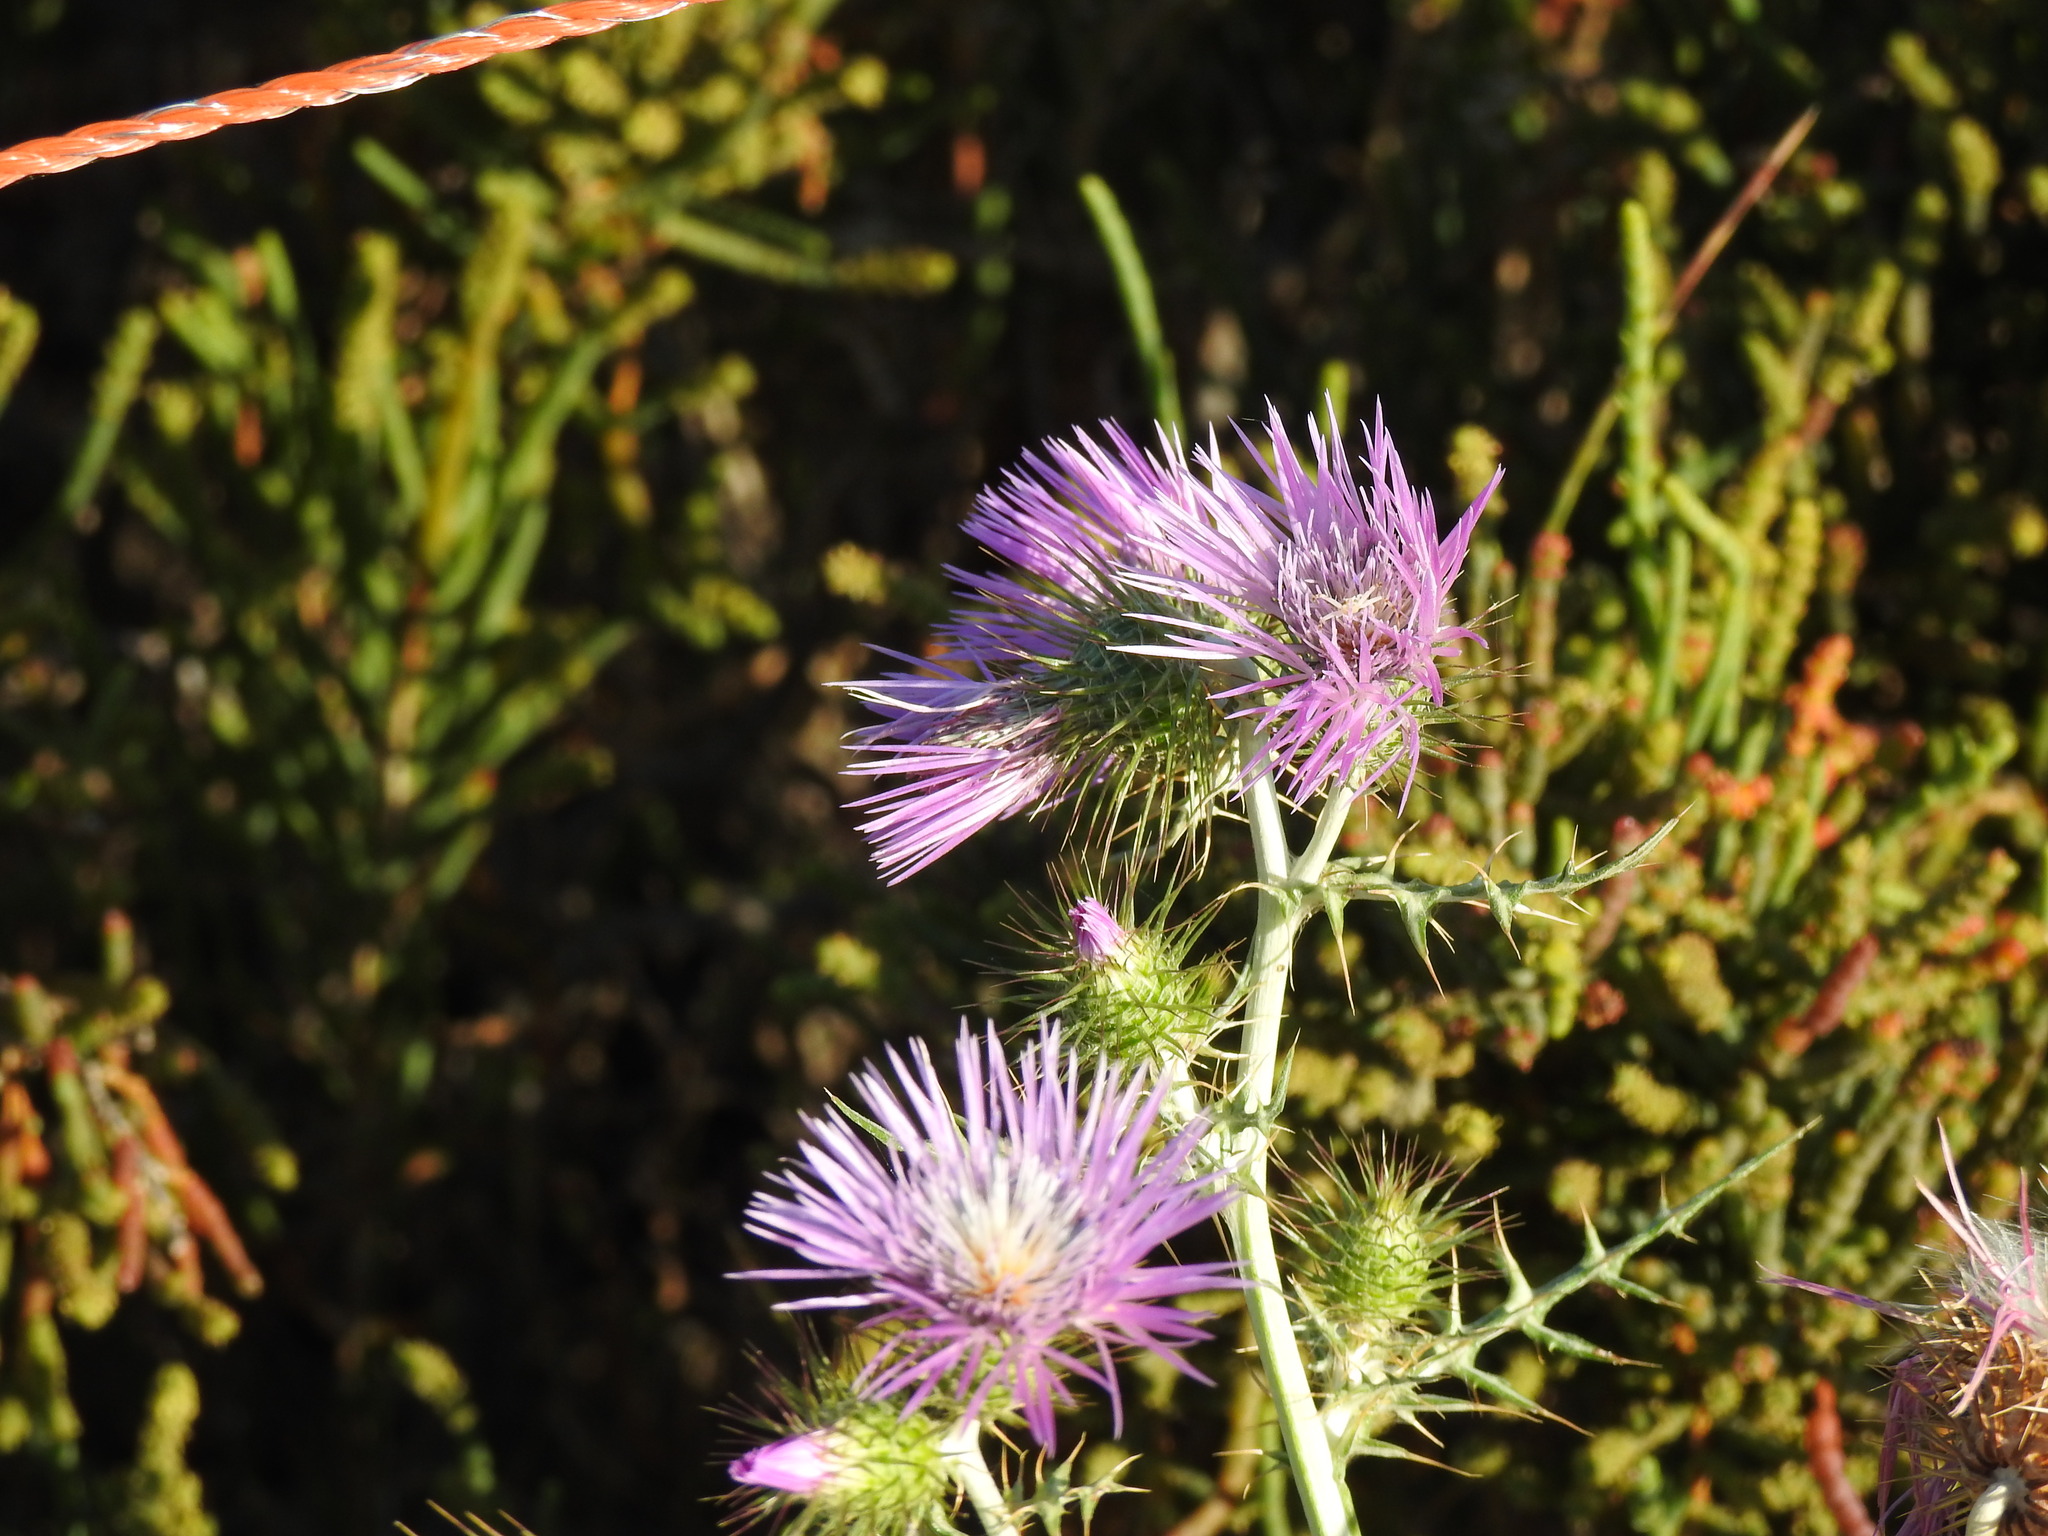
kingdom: Plantae
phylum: Tracheophyta
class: Magnoliopsida
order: Asterales
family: Asteraceae
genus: Galactites
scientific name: Galactites tomentosa
